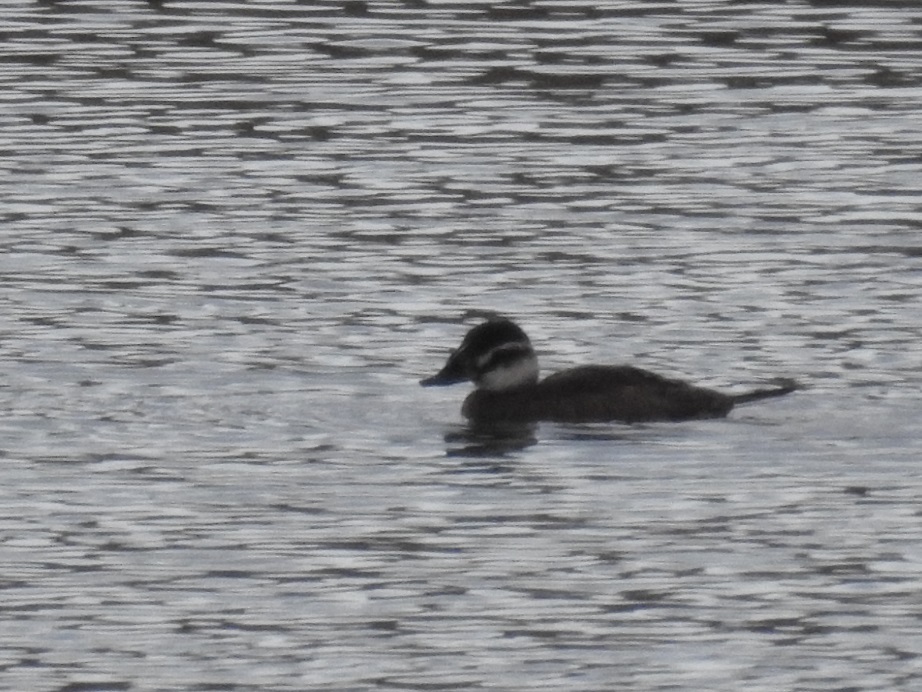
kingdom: Animalia
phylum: Chordata
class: Aves
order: Anseriformes
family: Anatidae
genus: Oxyura
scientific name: Oxyura leucocephala
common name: White-headed duck
